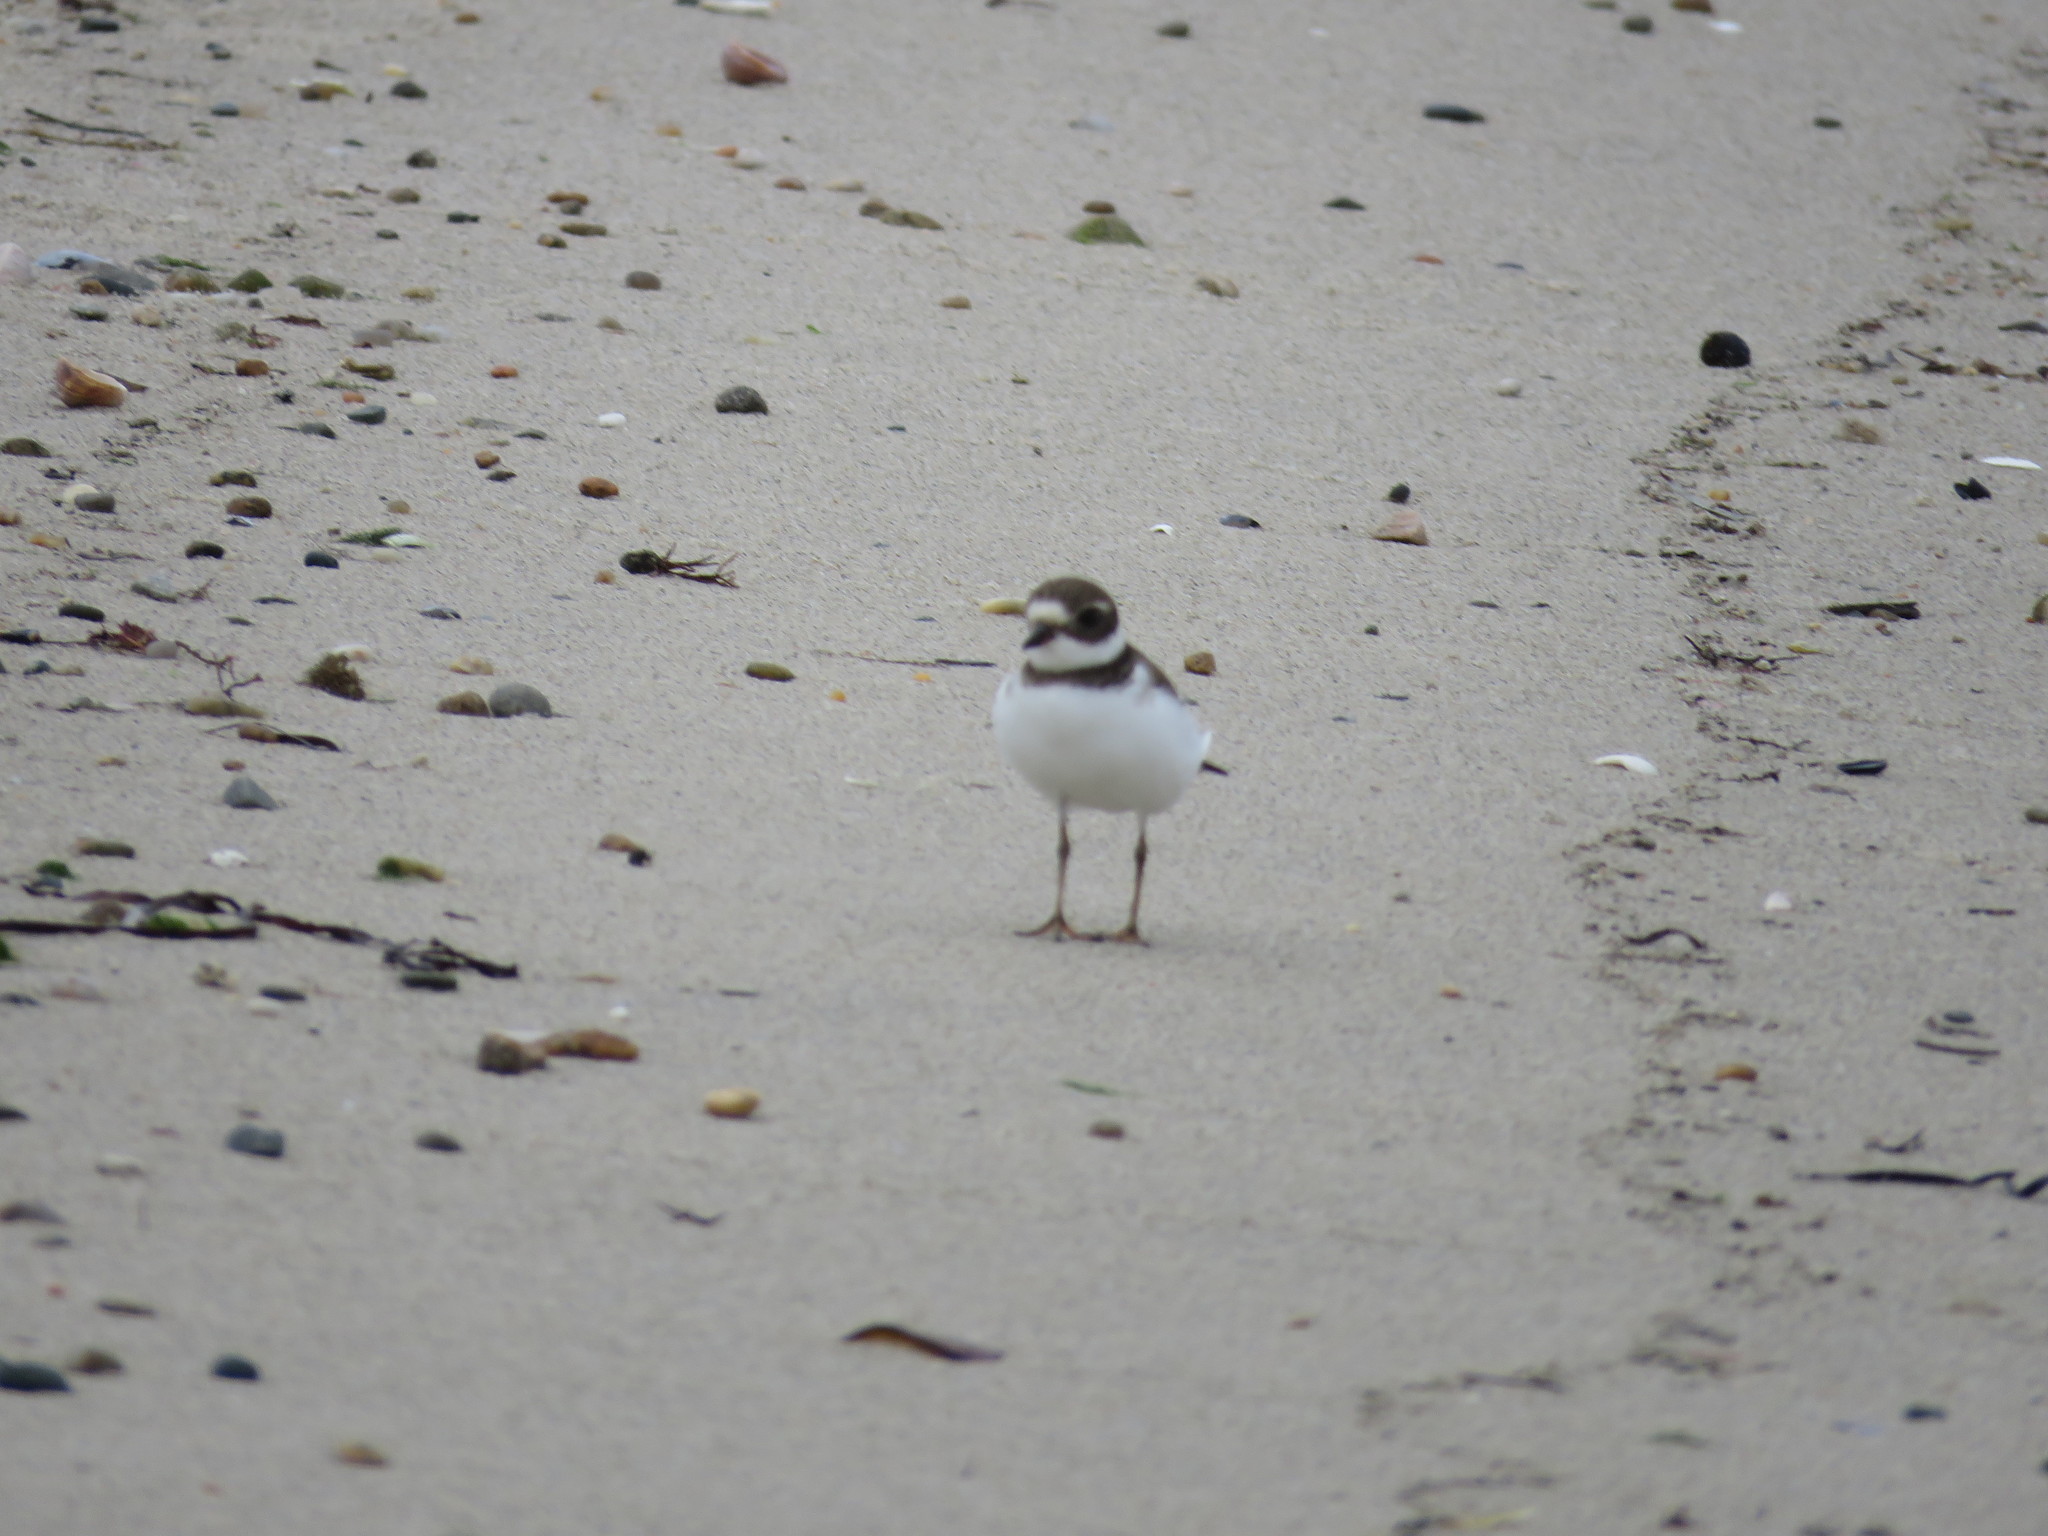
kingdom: Animalia
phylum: Chordata
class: Aves
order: Charadriiformes
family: Charadriidae
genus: Charadrius
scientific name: Charadrius semipalmatus
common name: Semipalmated plover
